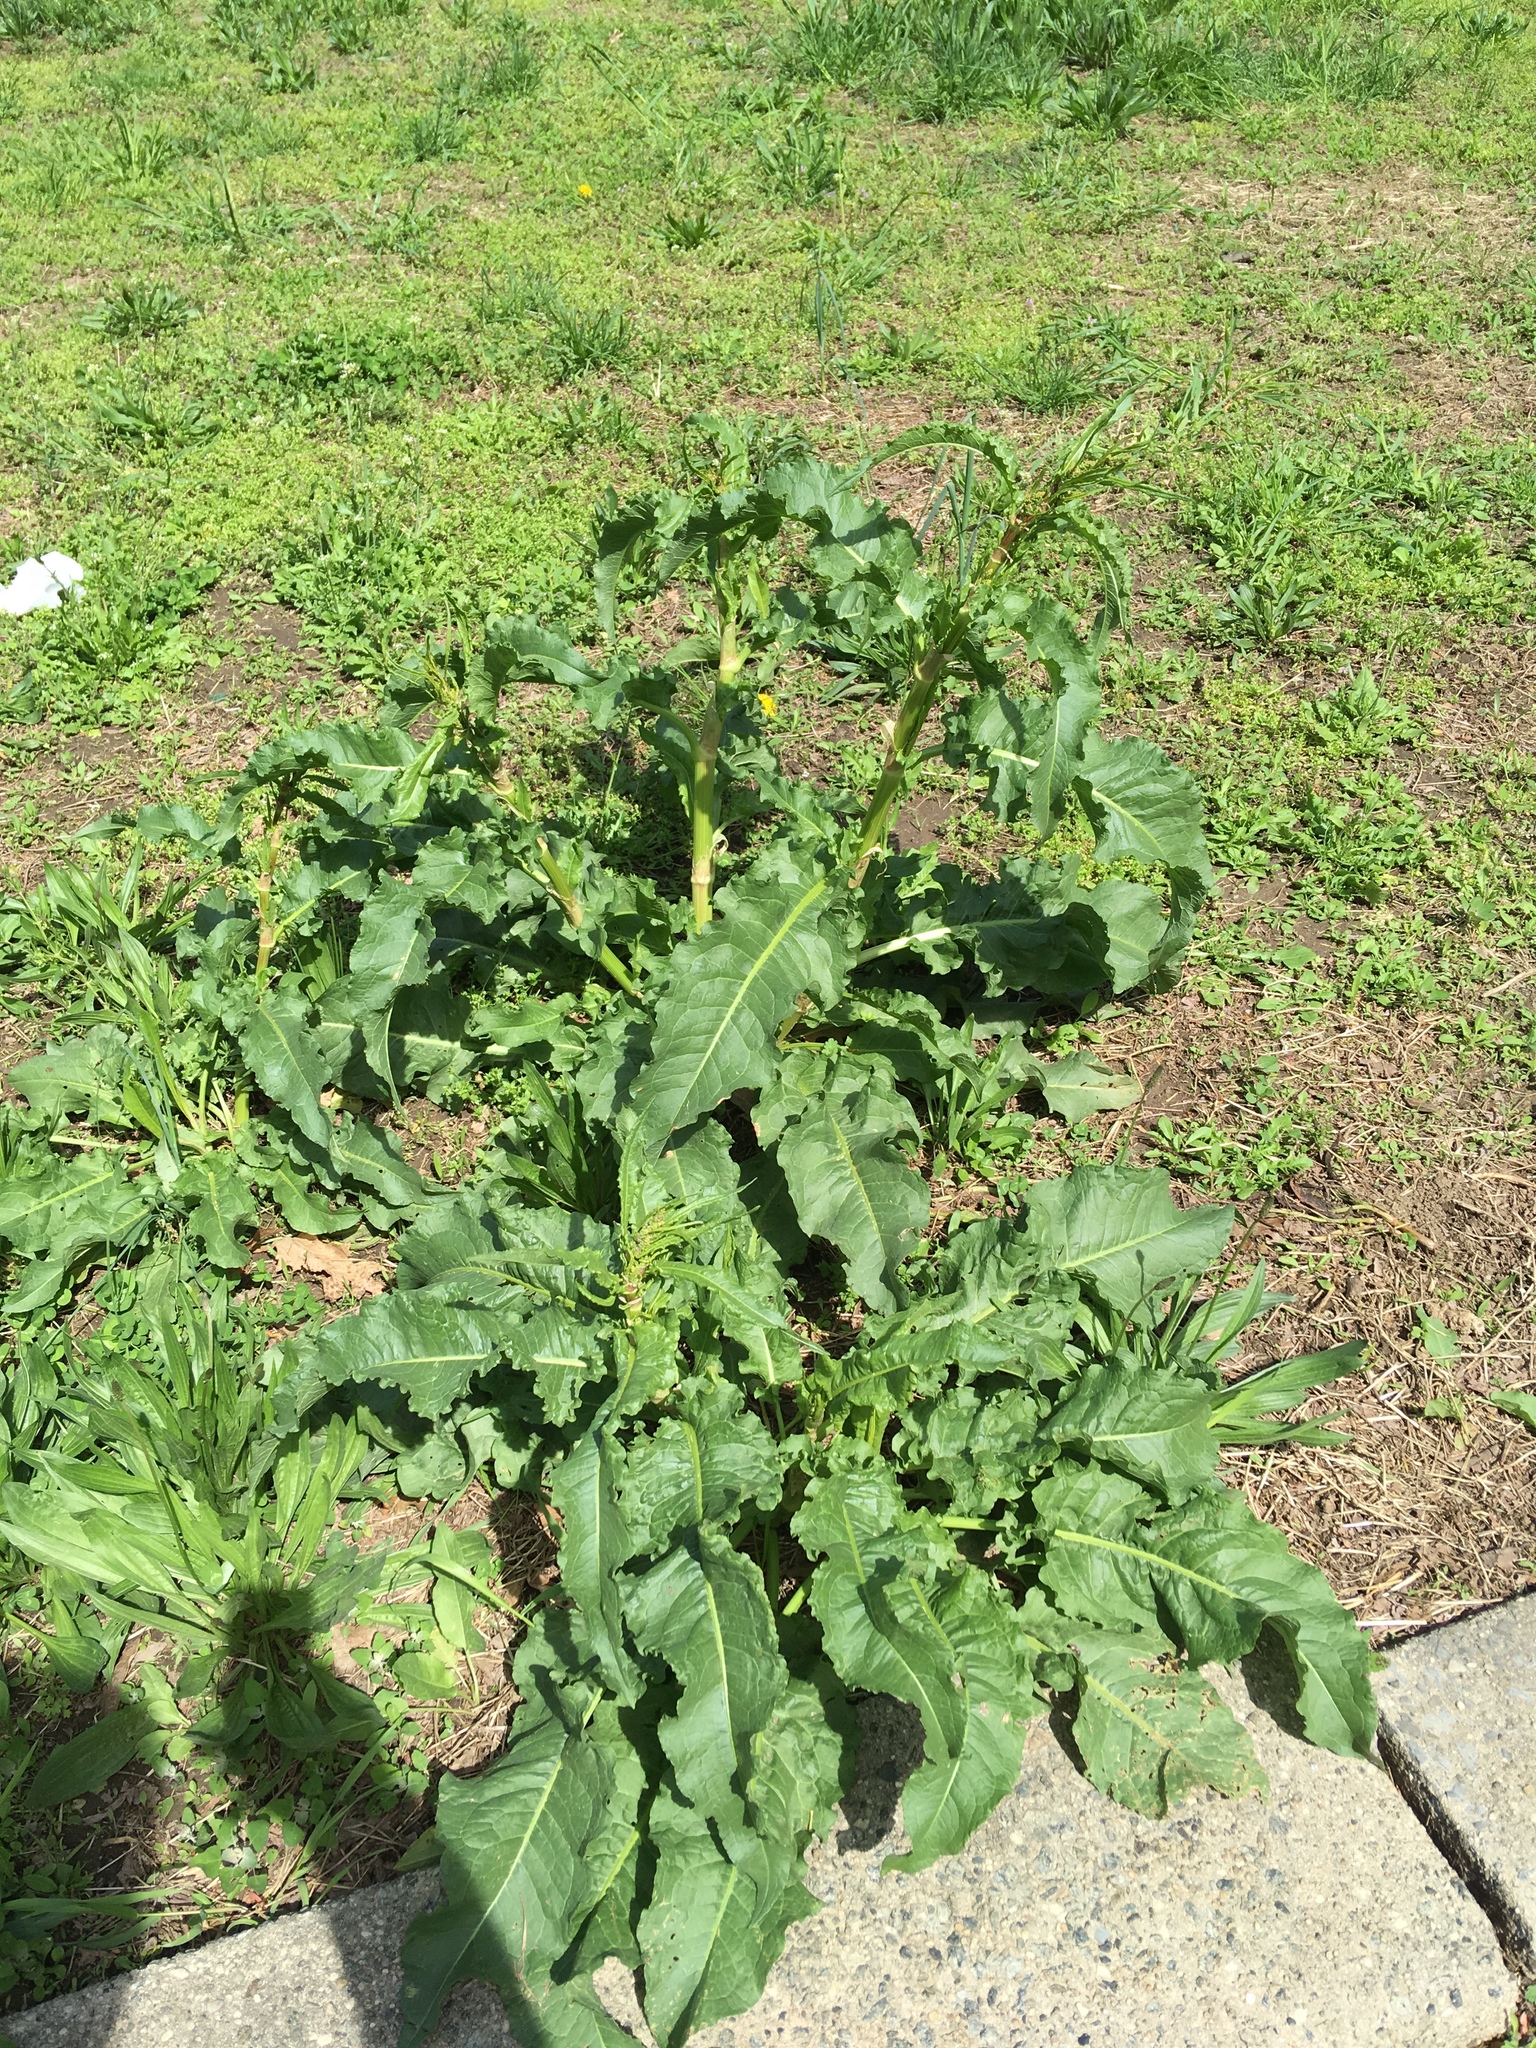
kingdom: Plantae
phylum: Tracheophyta
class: Magnoliopsida
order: Caryophyllales
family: Polygonaceae
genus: Rumex
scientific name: Rumex crispus
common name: Curled dock
